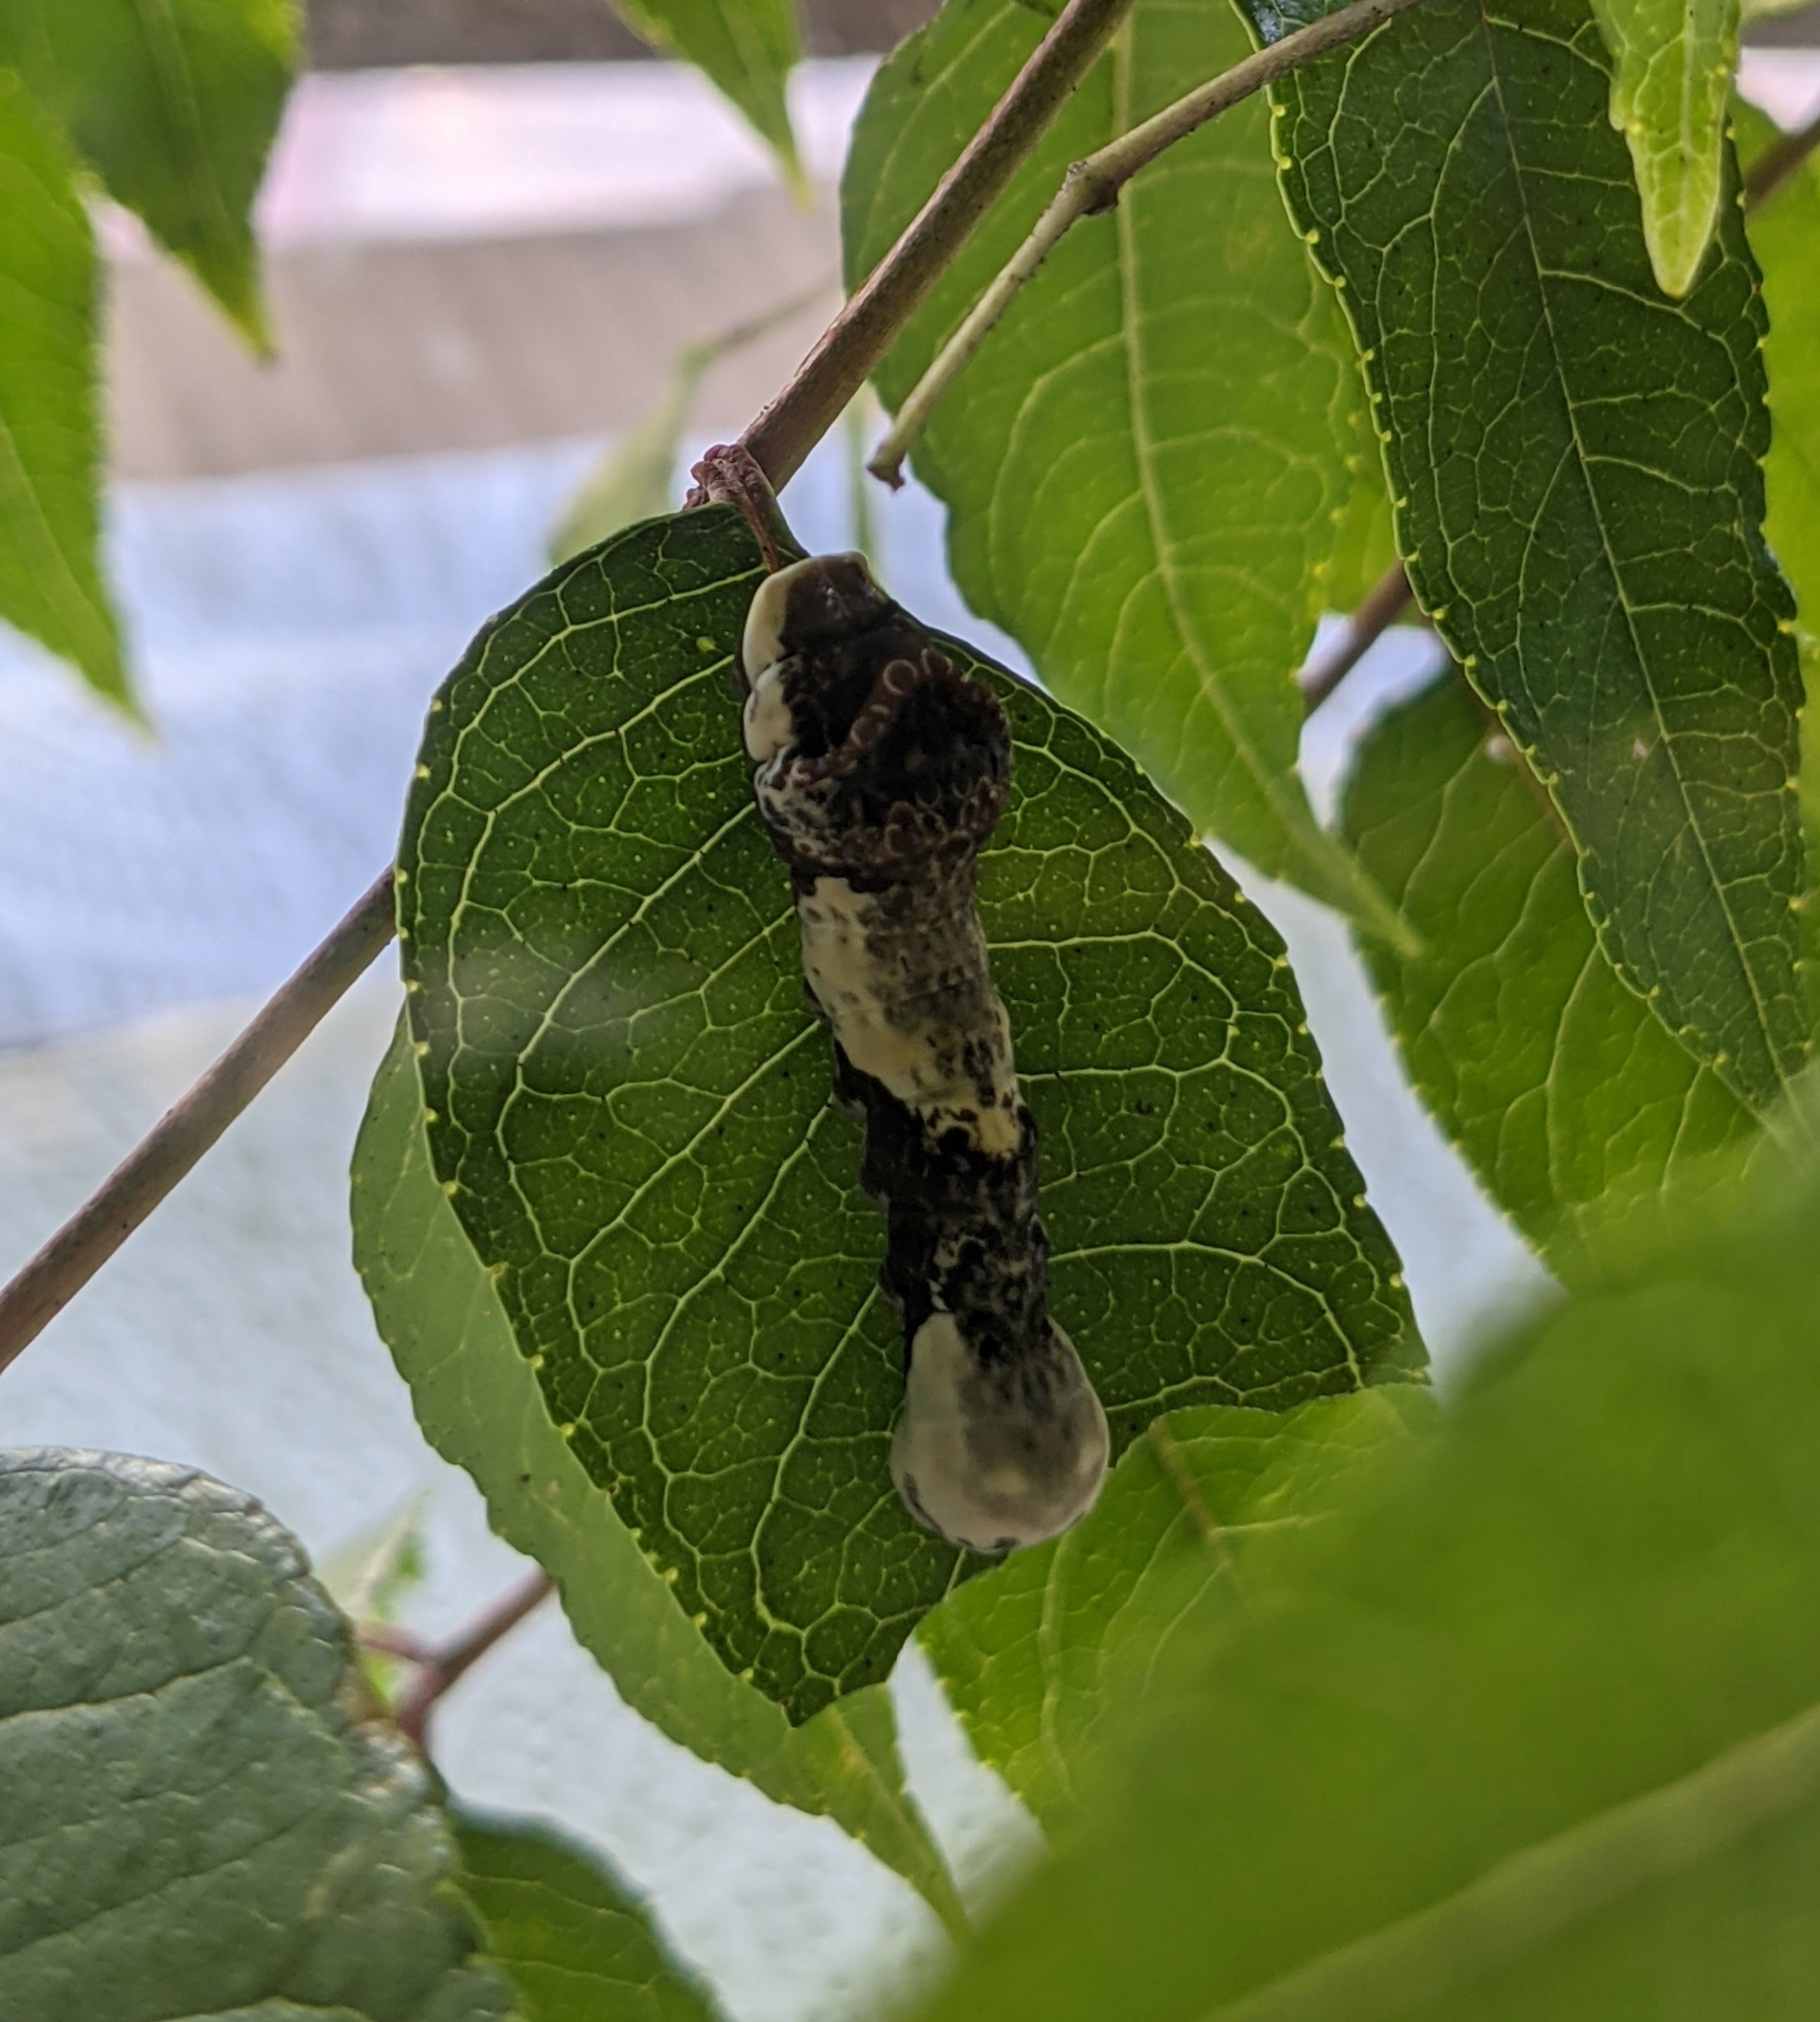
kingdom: Animalia
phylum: Arthropoda
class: Insecta
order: Lepidoptera
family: Papilionidae
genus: Papilio
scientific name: Papilio cresphontes
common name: Giant swallowtail
